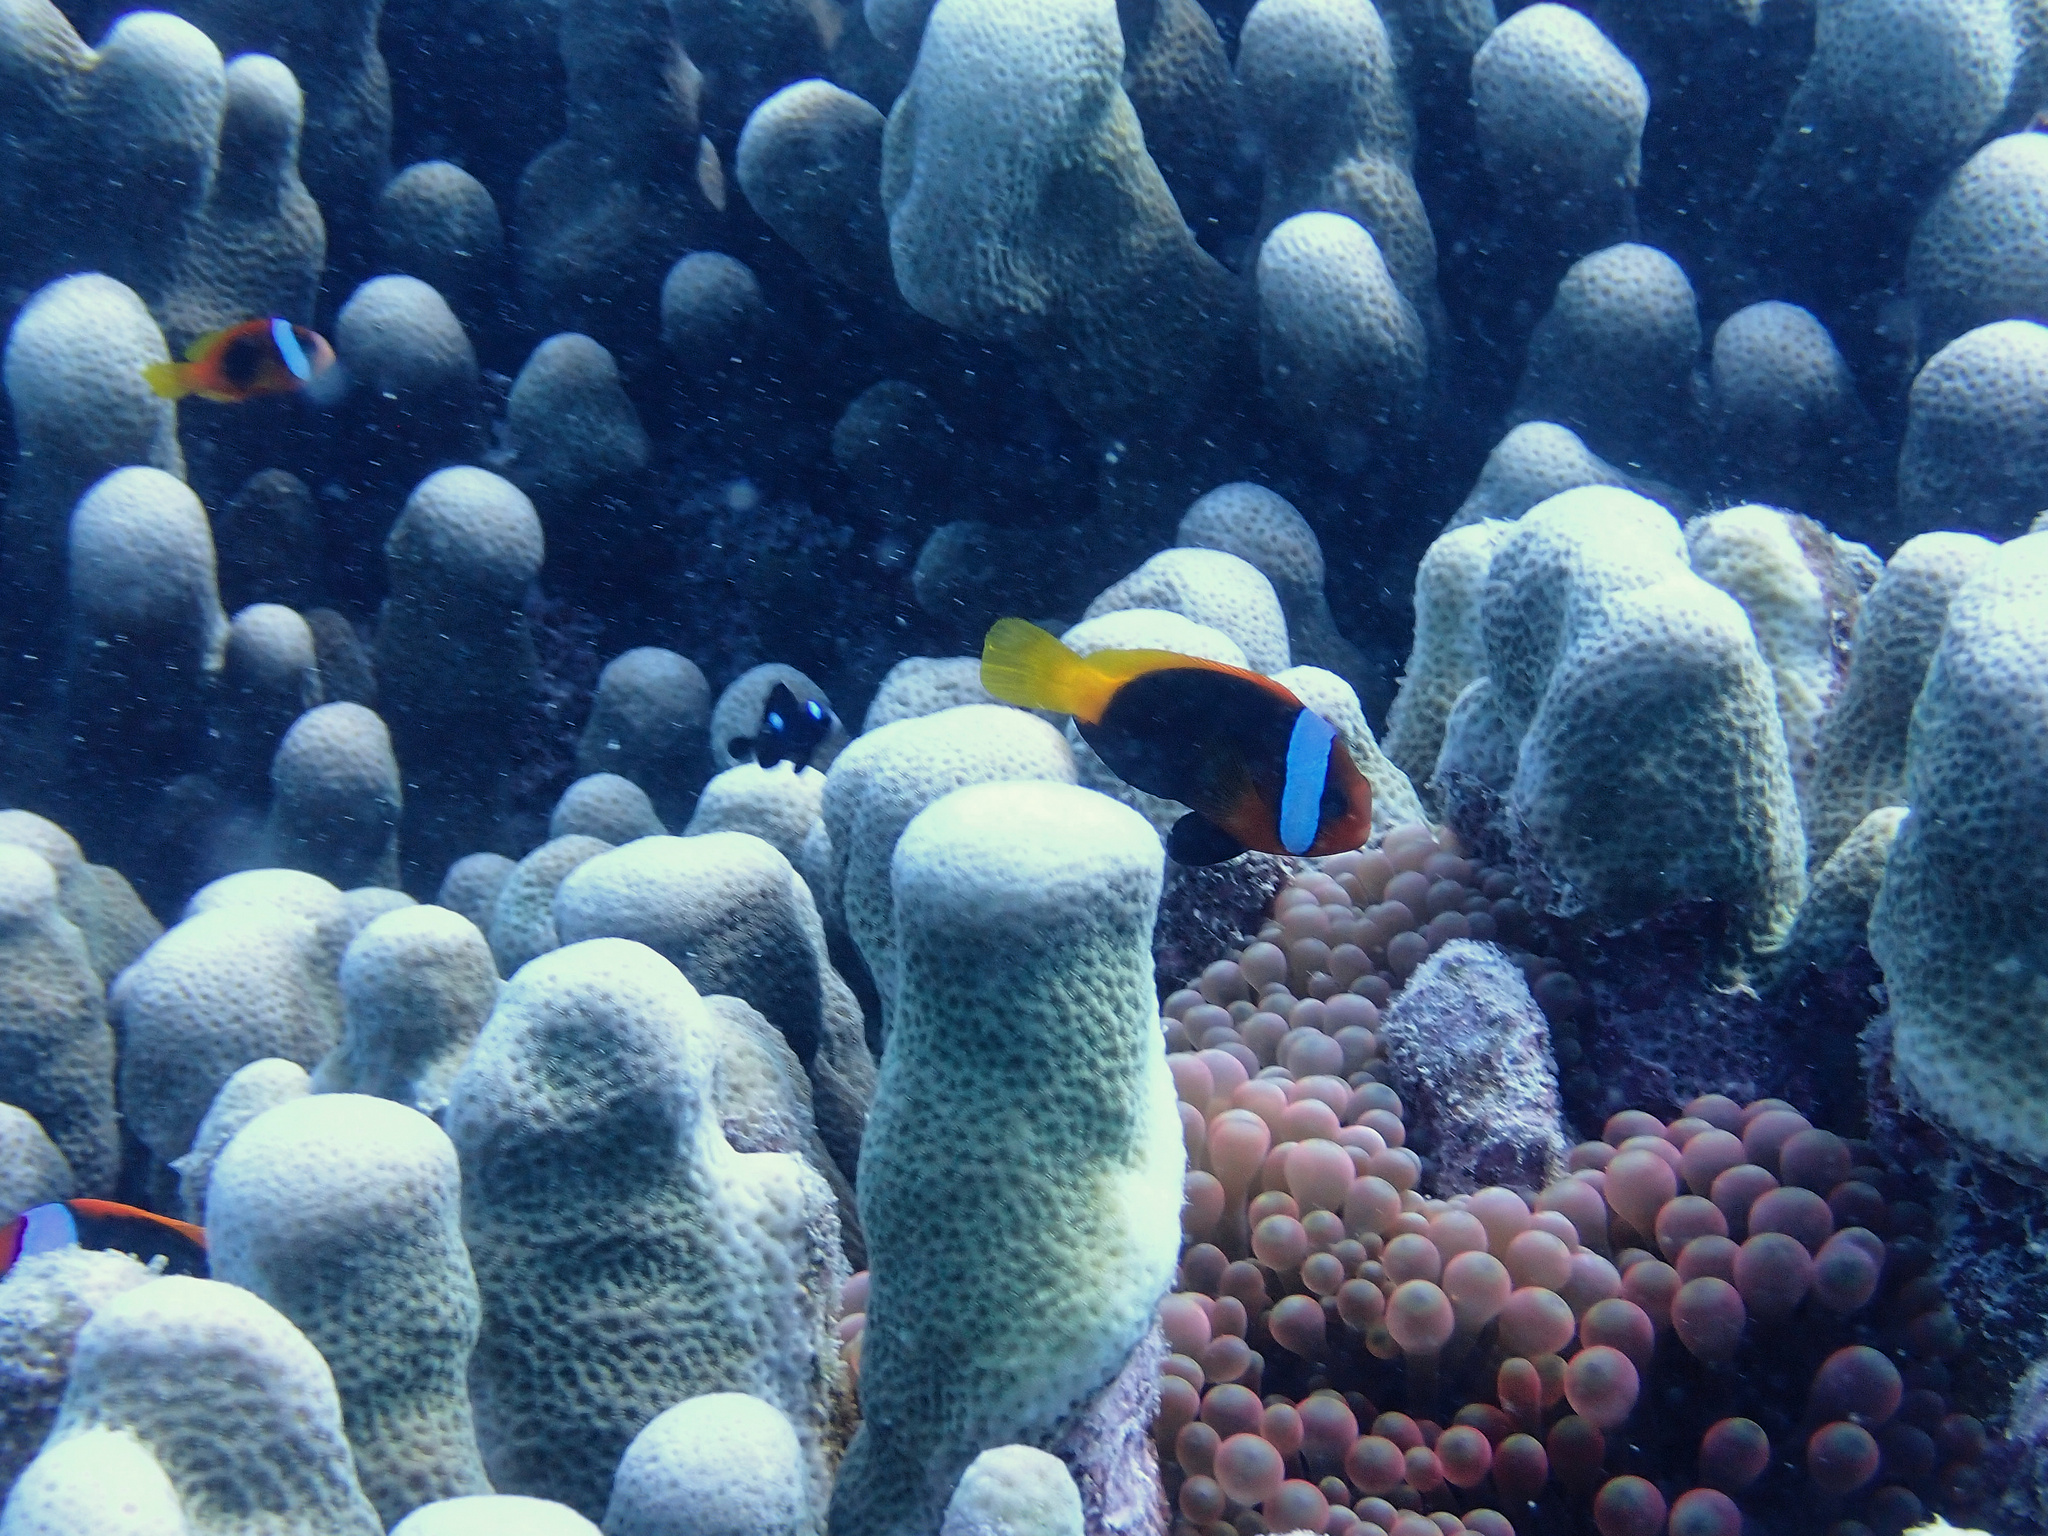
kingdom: Animalia
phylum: Chordata
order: Perciformes
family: Pomacentridae
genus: Amphiprion
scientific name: Amphiprion melanopus
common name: Black anemonefish
